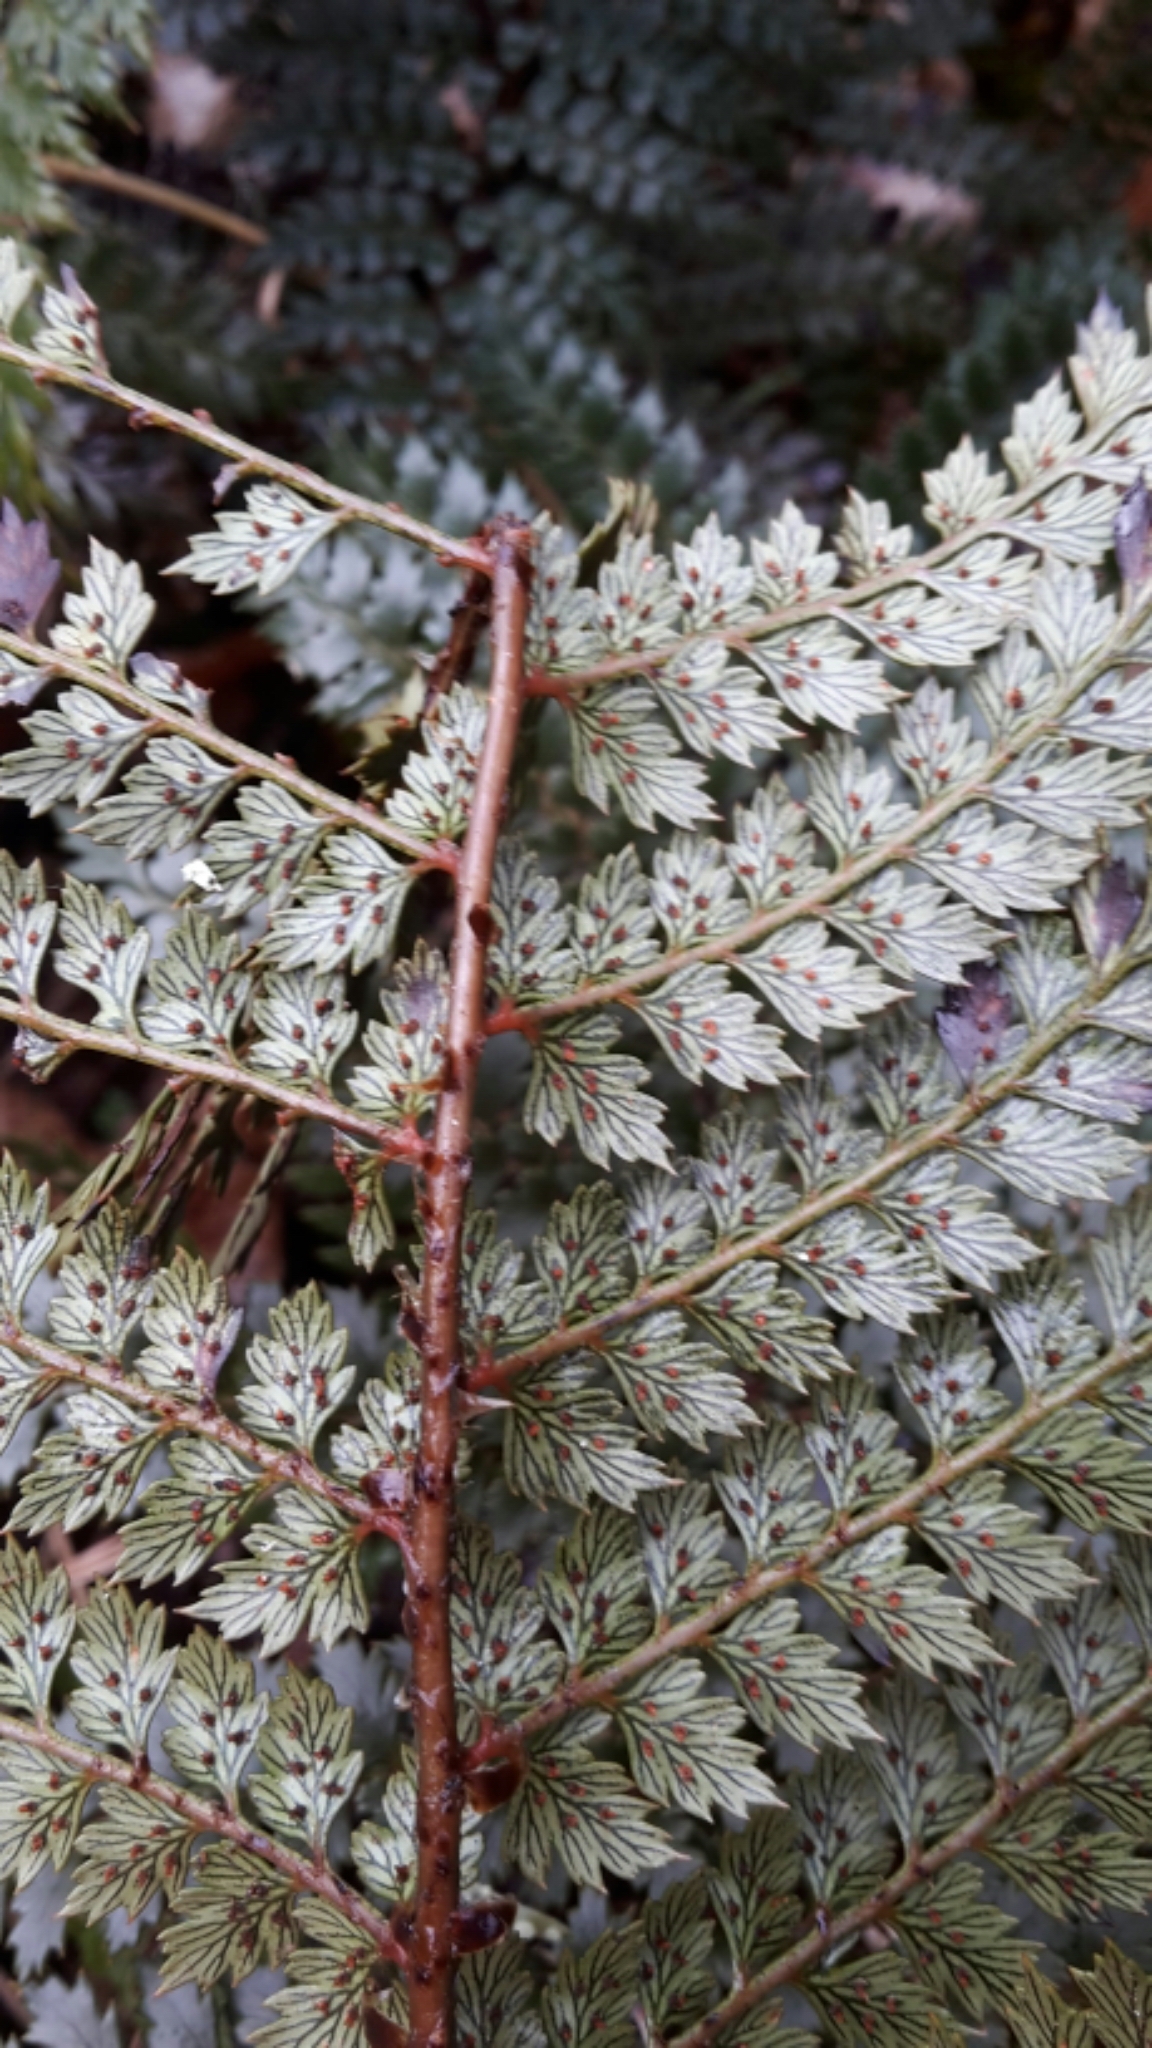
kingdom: Plantae
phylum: Tracheophyta
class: Polypodiopsida
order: Polypodiales
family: Dryopteridaceae
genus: Polystichum
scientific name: Polystichum vestitum
